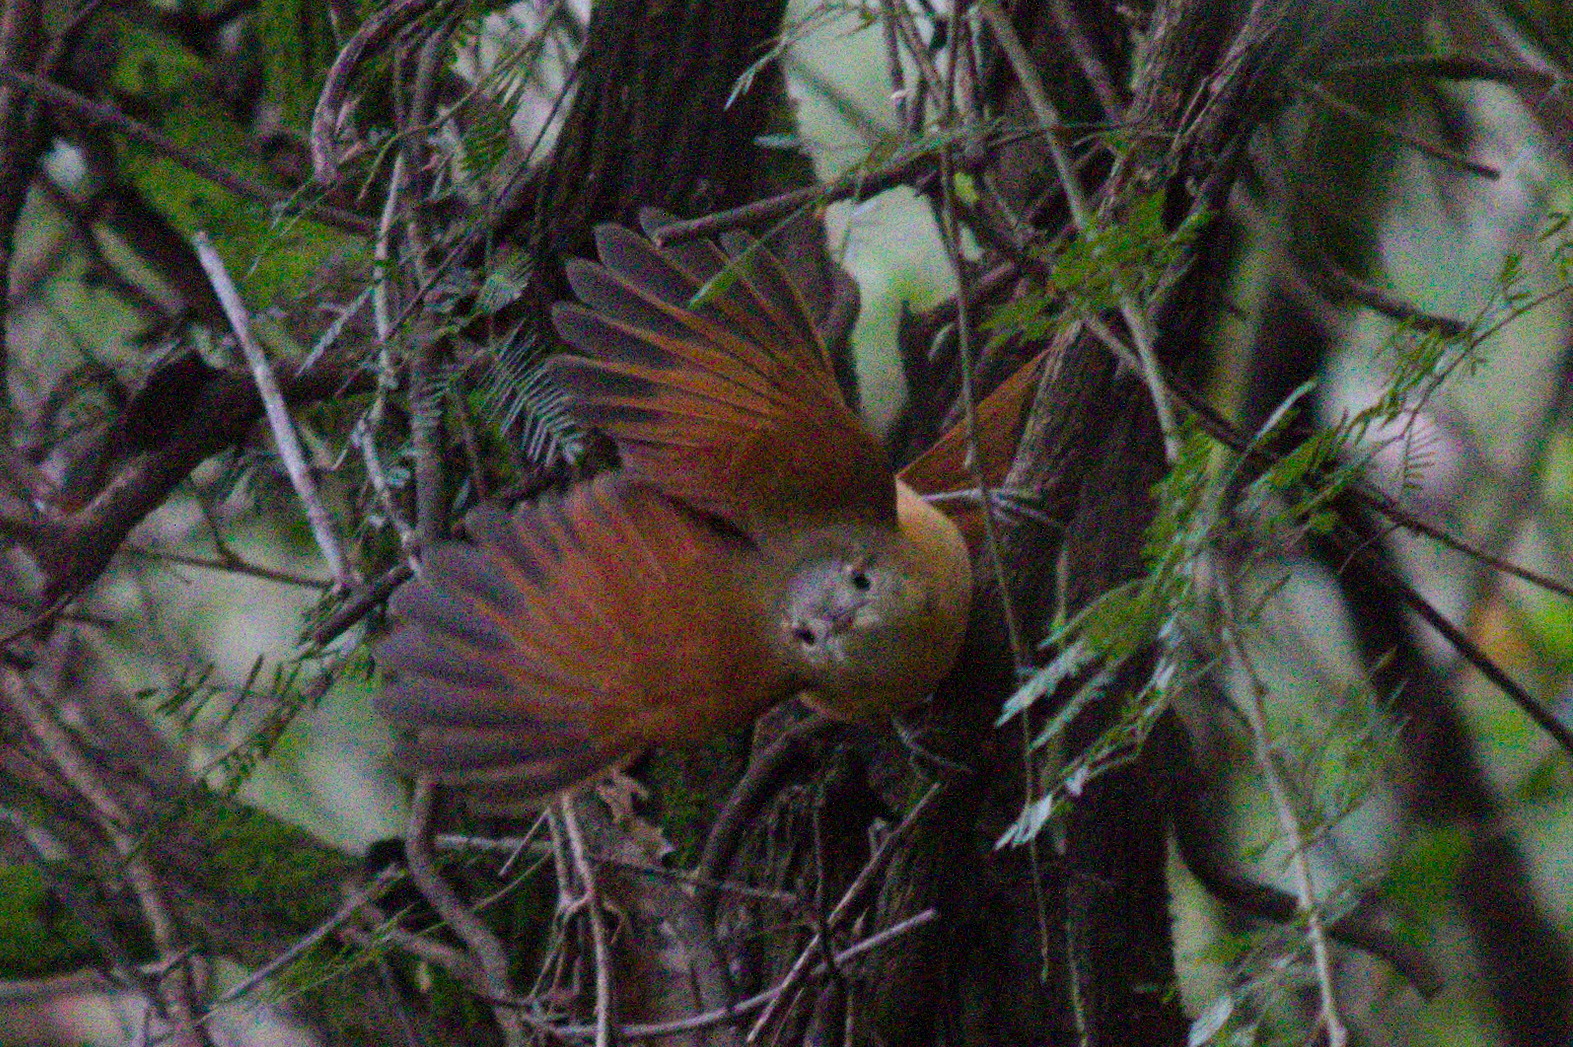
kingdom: Animalia
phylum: Chordata
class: Aves
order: Passeriformes
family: Furnariidae
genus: Synallaxis
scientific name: Synallaxis albilora
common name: White-lored spinetail
